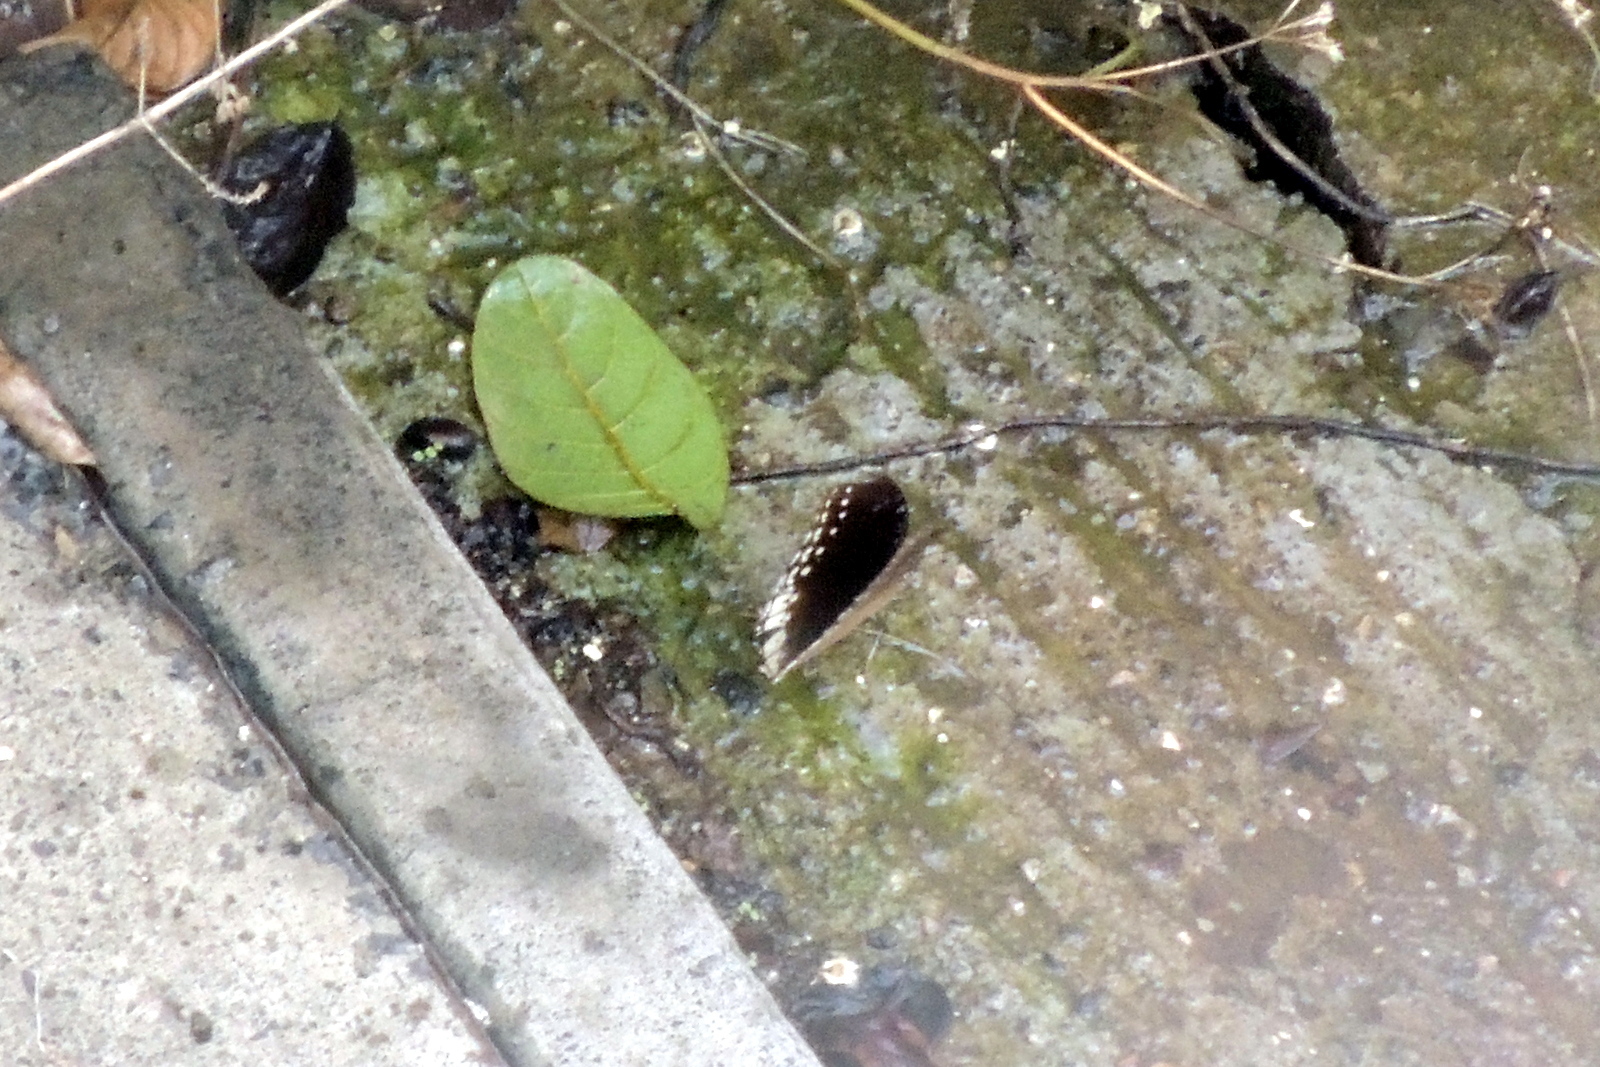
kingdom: Animalia
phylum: Arthropoda
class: Insecta
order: Lepidoptera
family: Nymphalidae
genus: Hypolimnas
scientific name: Hypolimnas bolina
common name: Great eggfly
